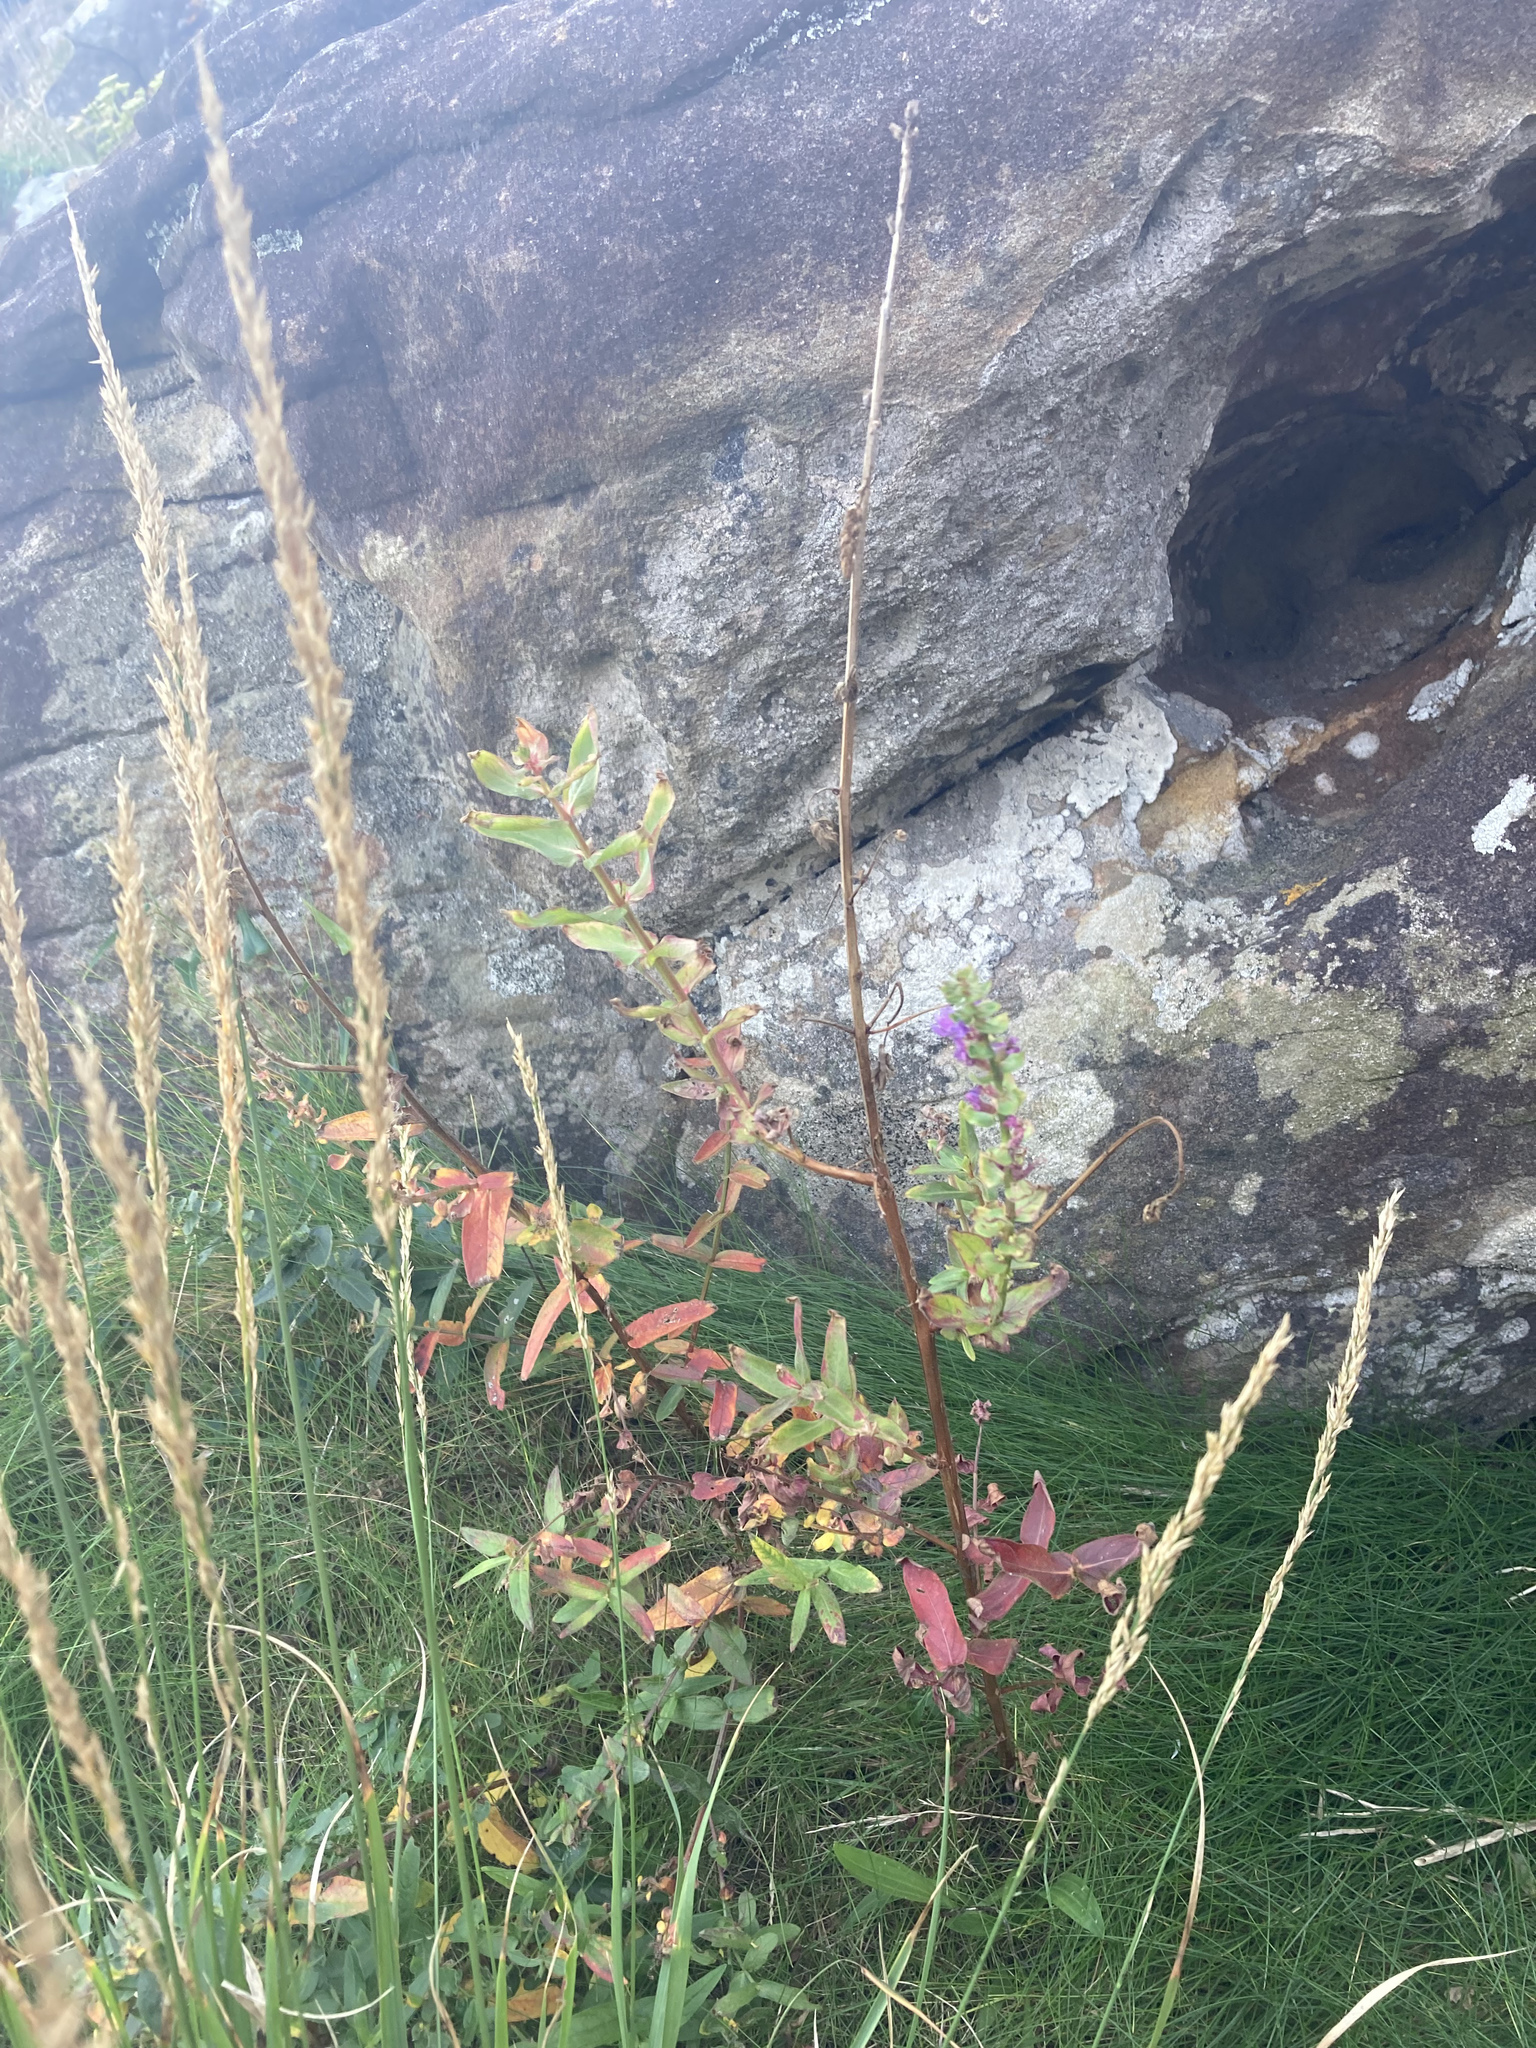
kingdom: Plantae
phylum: Tracheophyta
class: Magnoliopsida
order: Myrtales
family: Lythraceae
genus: Lythrum
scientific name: Lythrum salicaria
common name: Purple loosestrife
